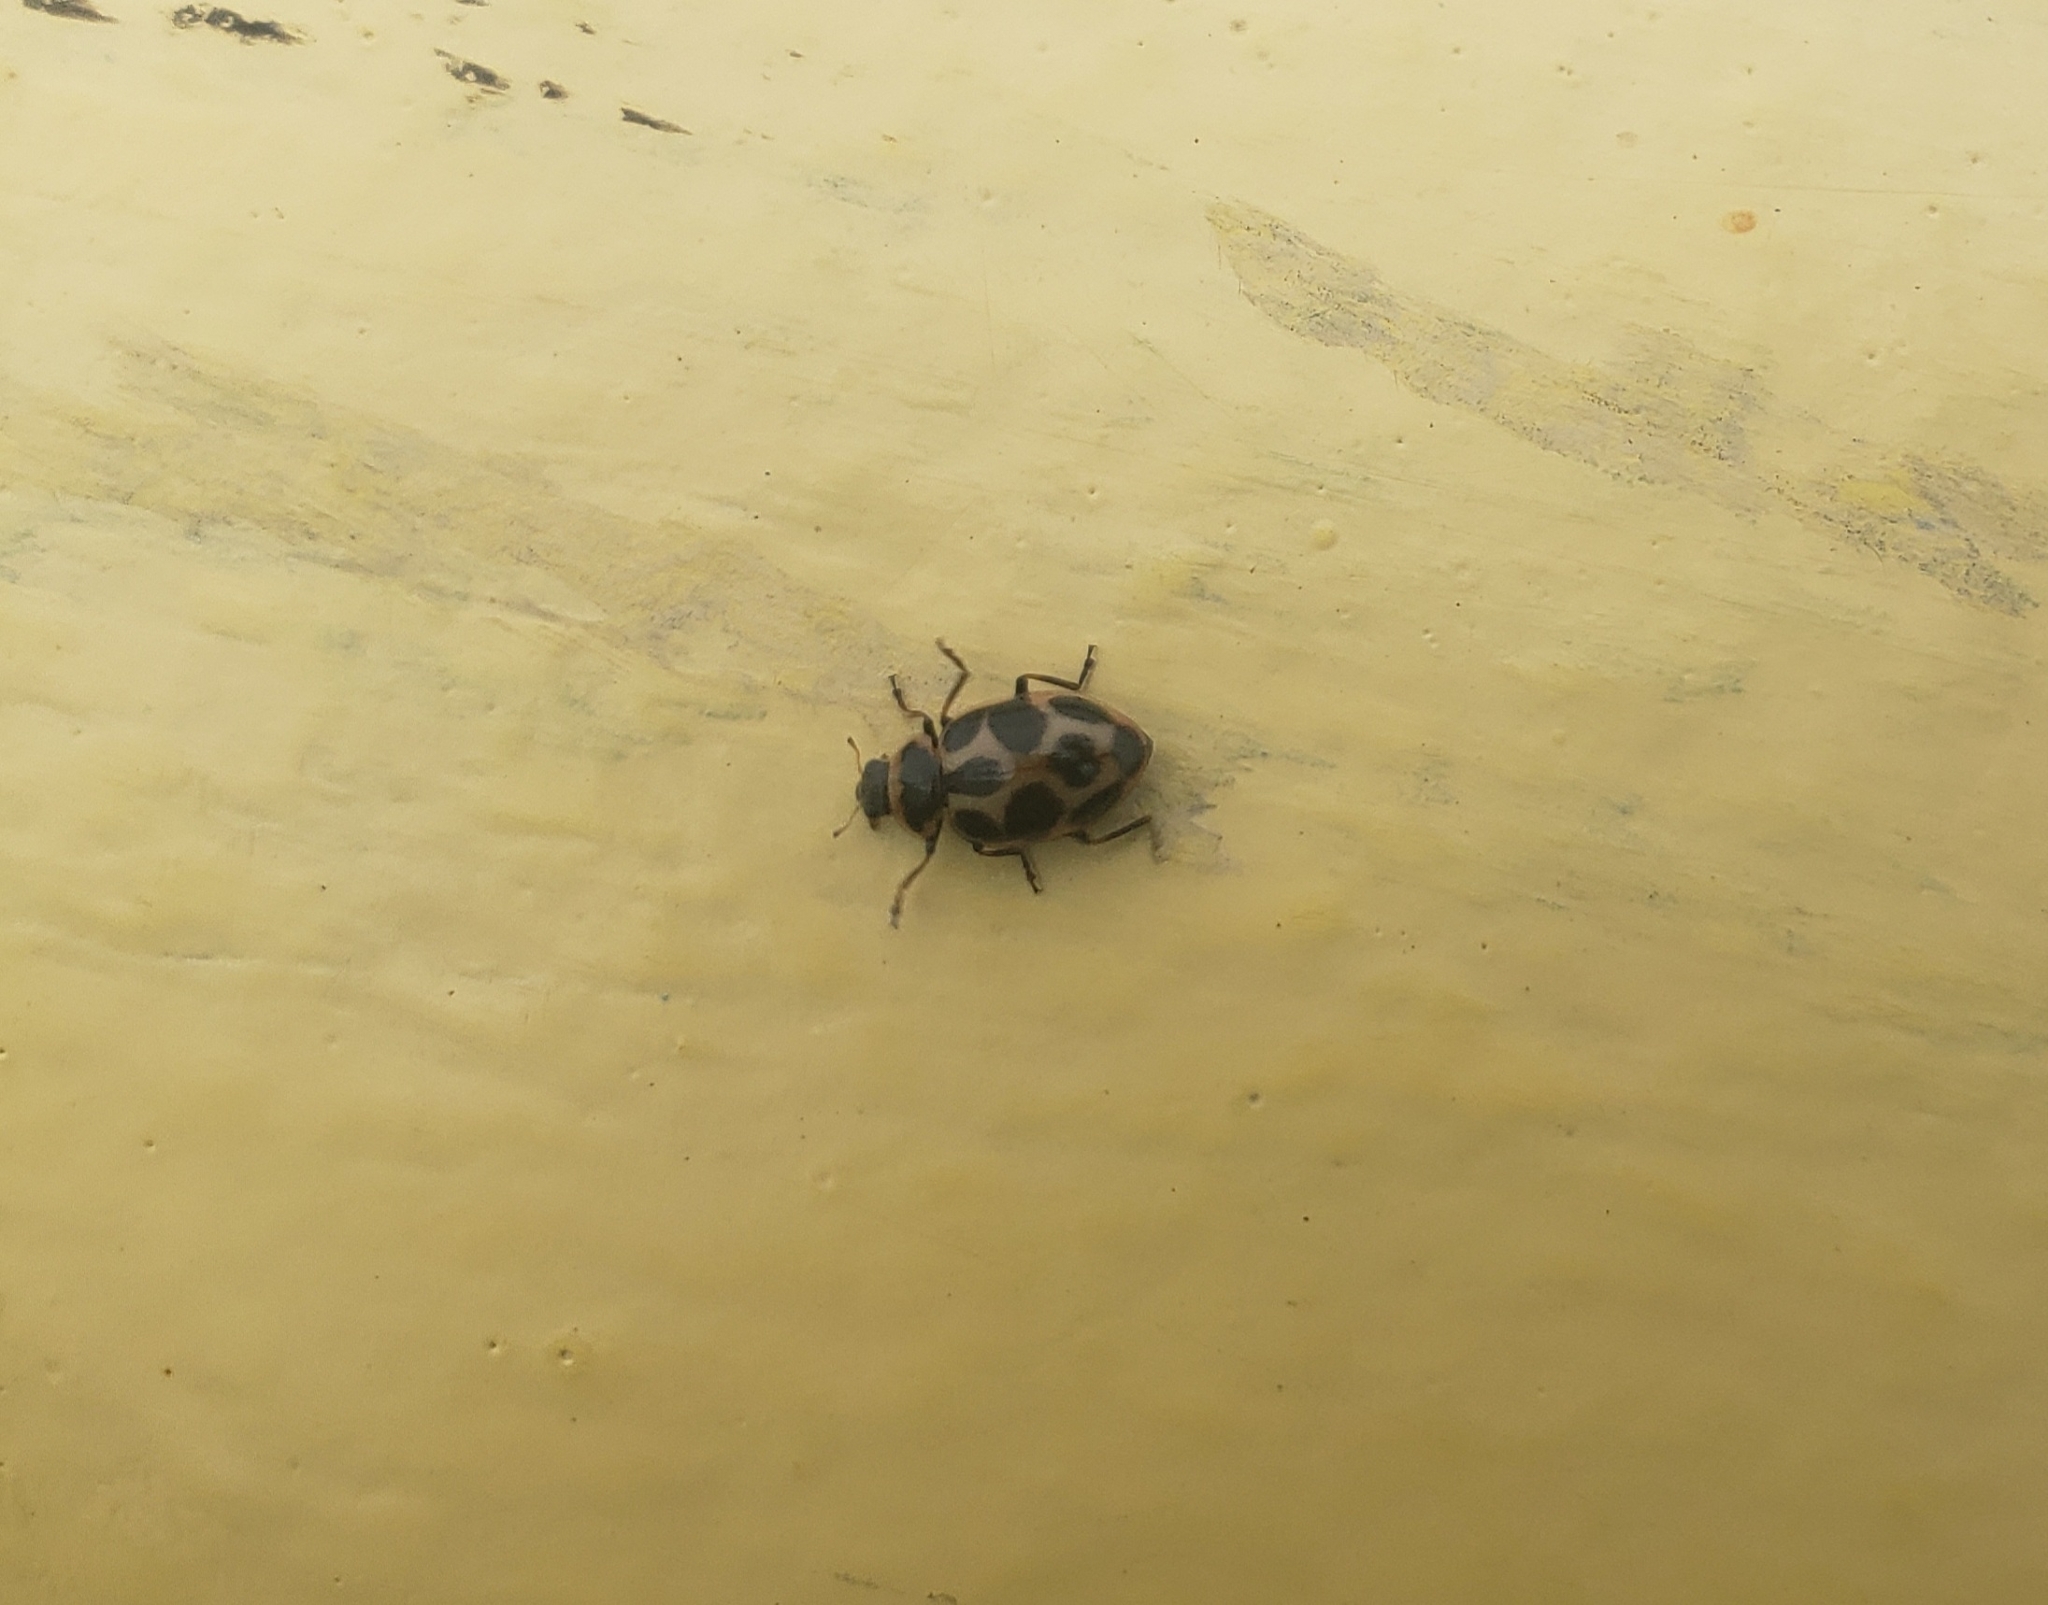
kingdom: Animalia
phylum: Arthropoda
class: Insecta
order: Coleoptera
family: Coccinellidae
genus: Naemia
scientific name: Naemia seriata
